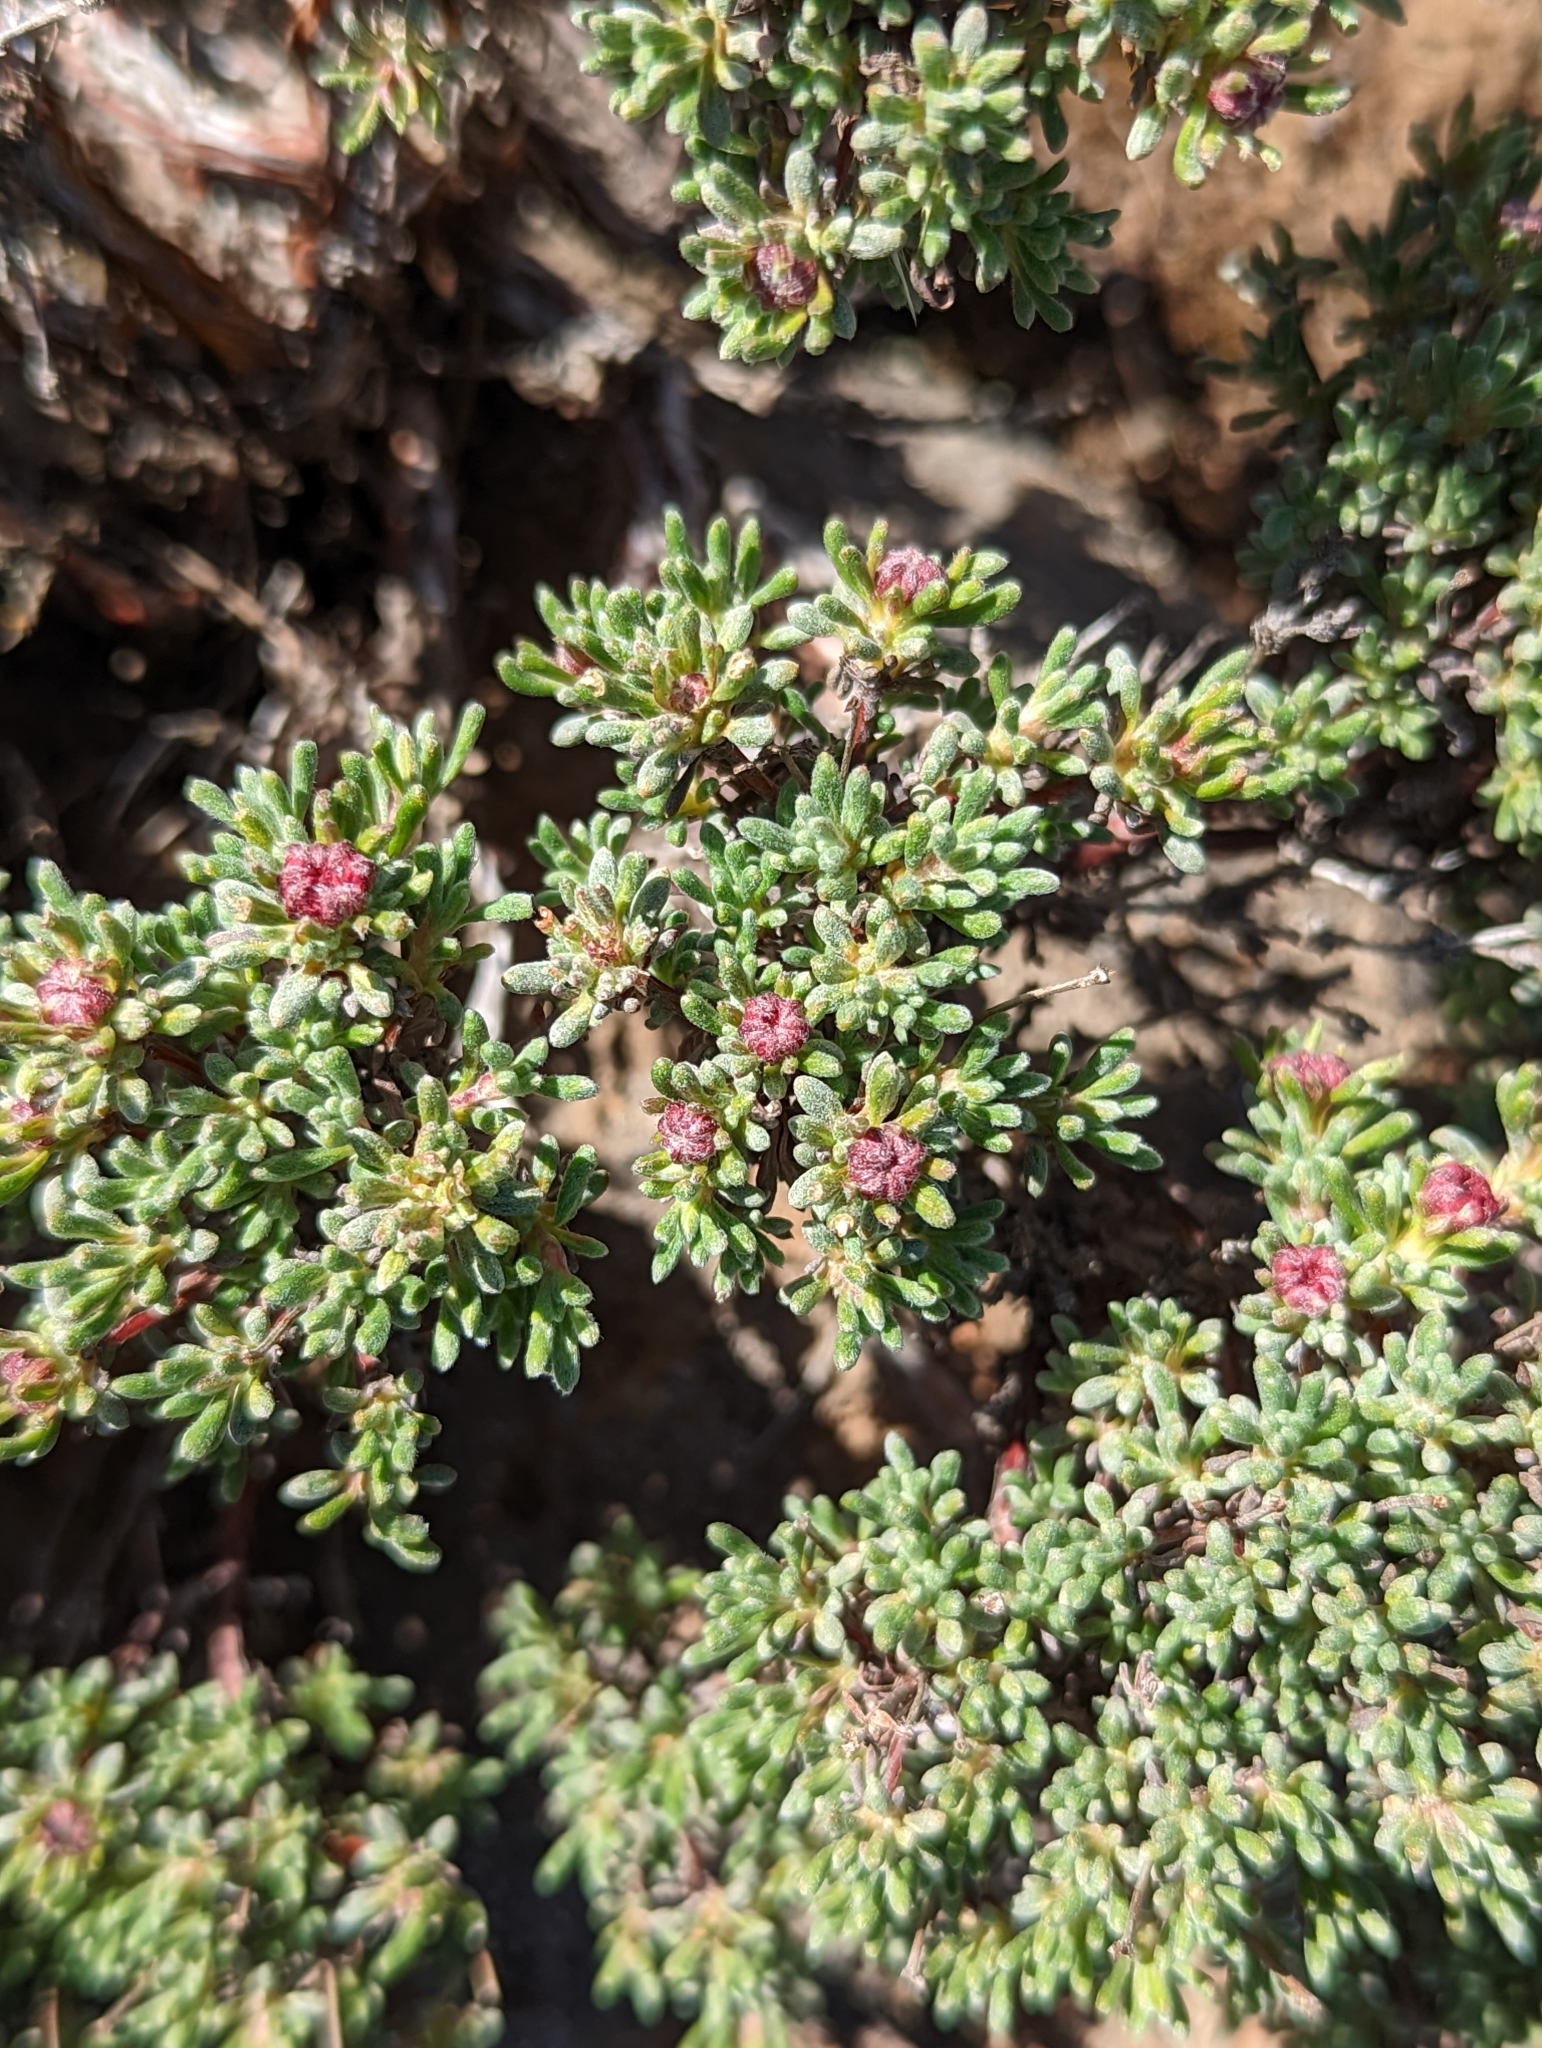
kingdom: Plantae
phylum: Tracheophyta
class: Magnoliopsida
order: Caryophyllales
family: Polygonaceae
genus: Eriogonum
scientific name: Eriogonum thymoides
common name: Thyme-leaf wild buckwheat
